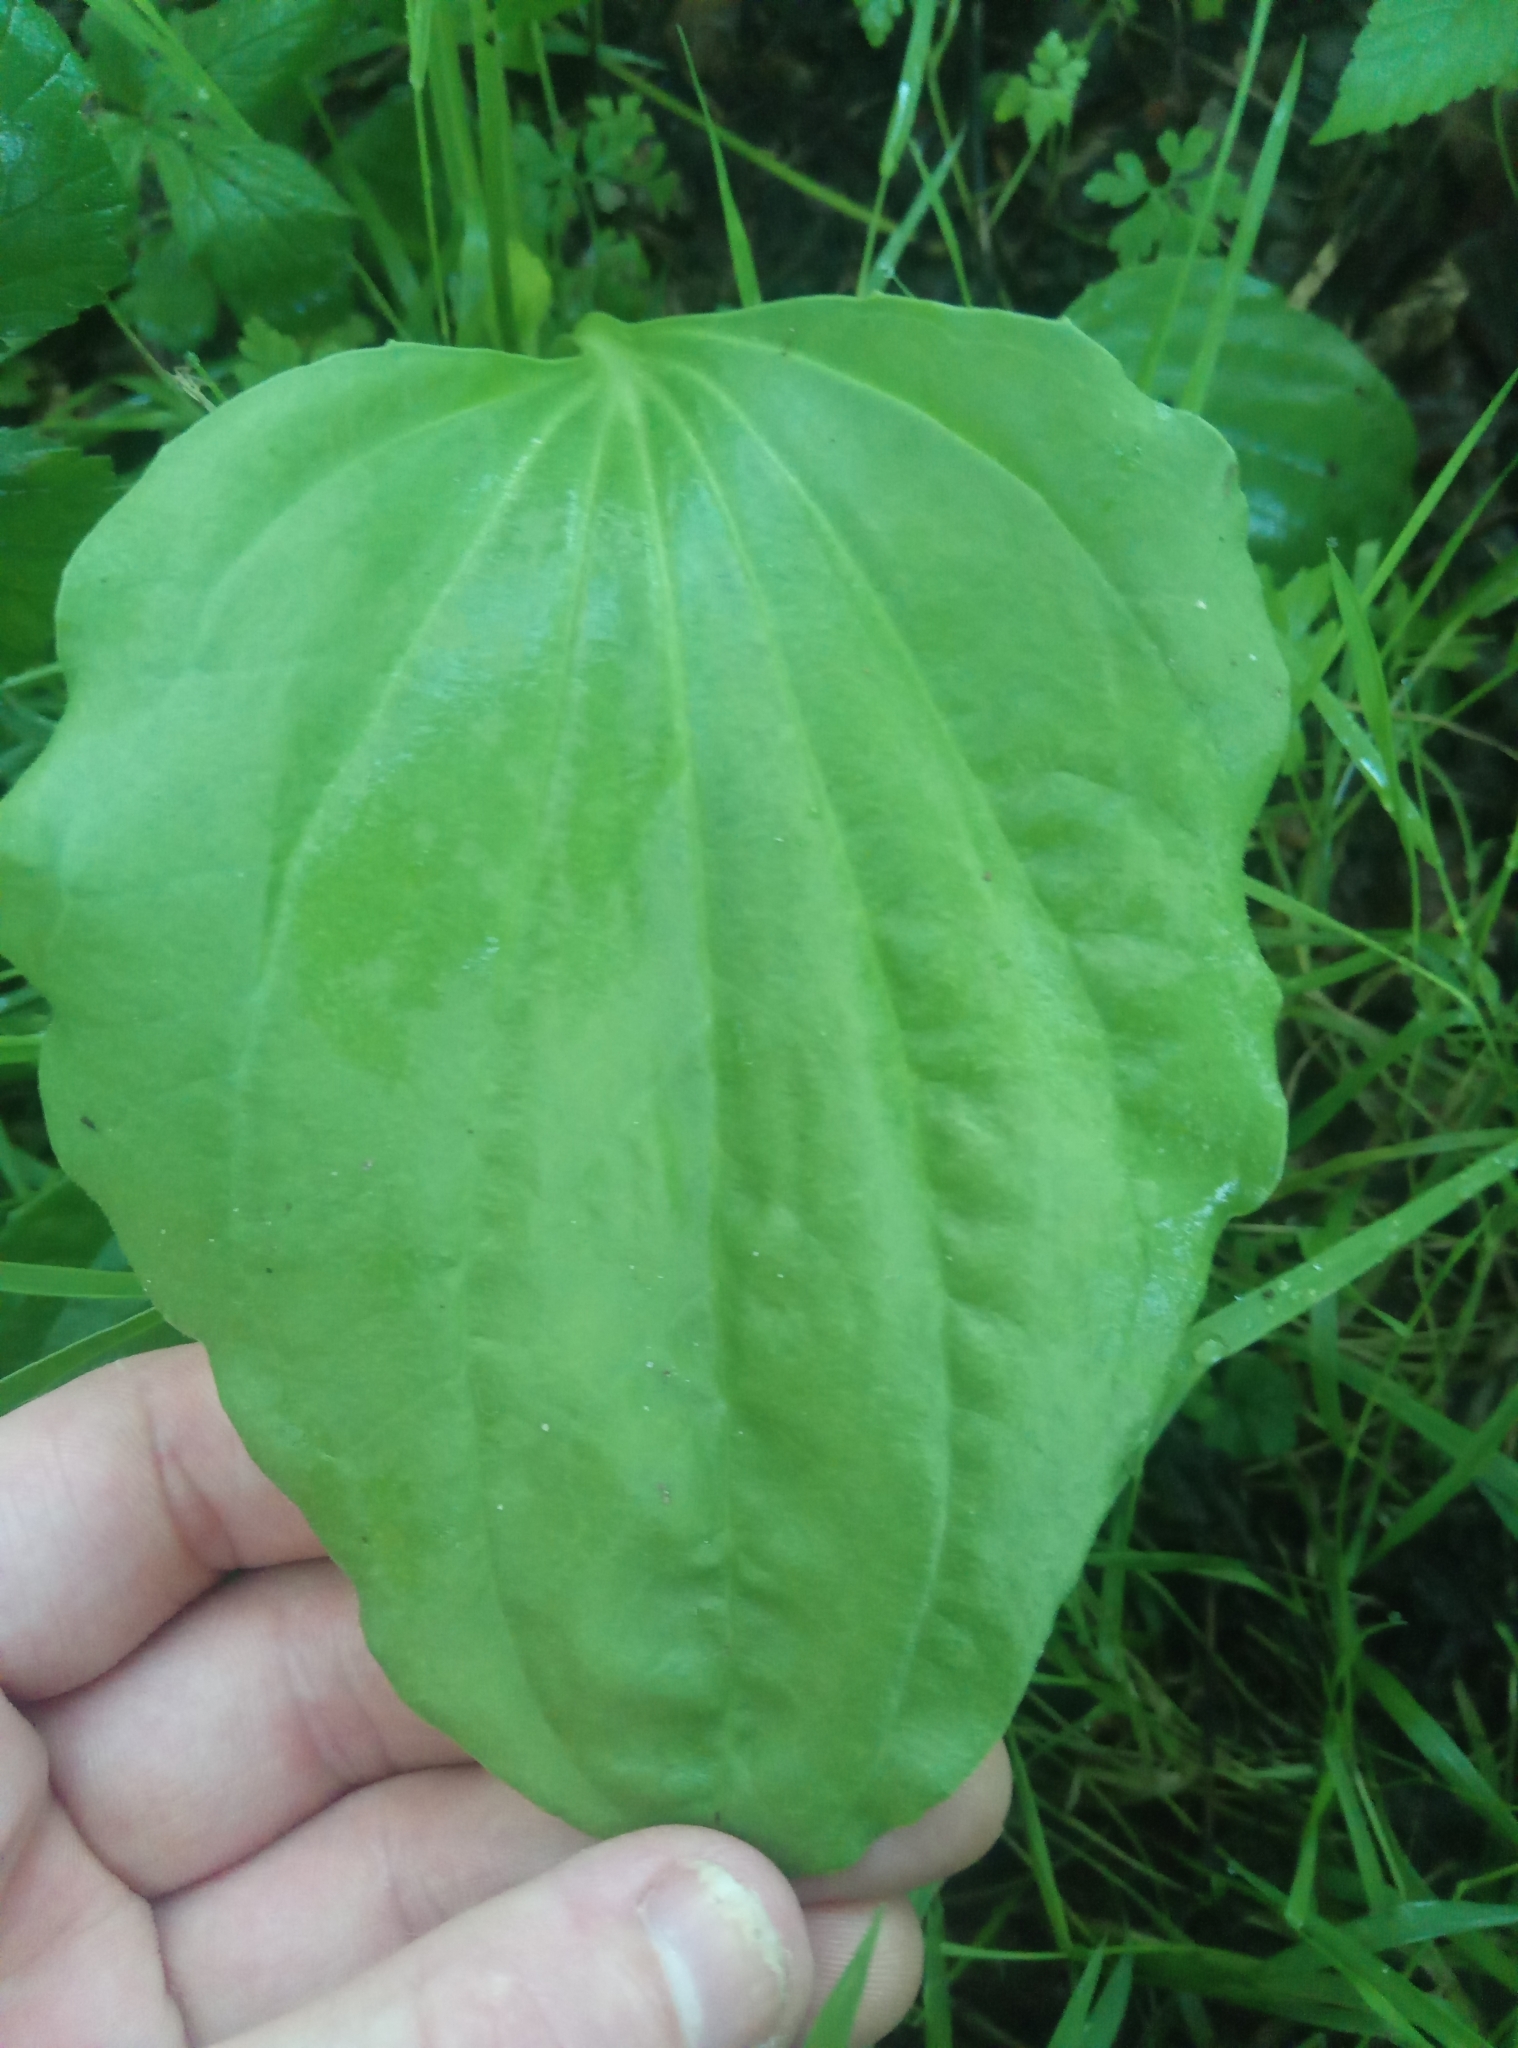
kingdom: Plantae
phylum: Tracheophyta
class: Magnoliopsida
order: Lamiales
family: Plantaginaceae
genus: Plantago
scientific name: Plantago major
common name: Common plantain
